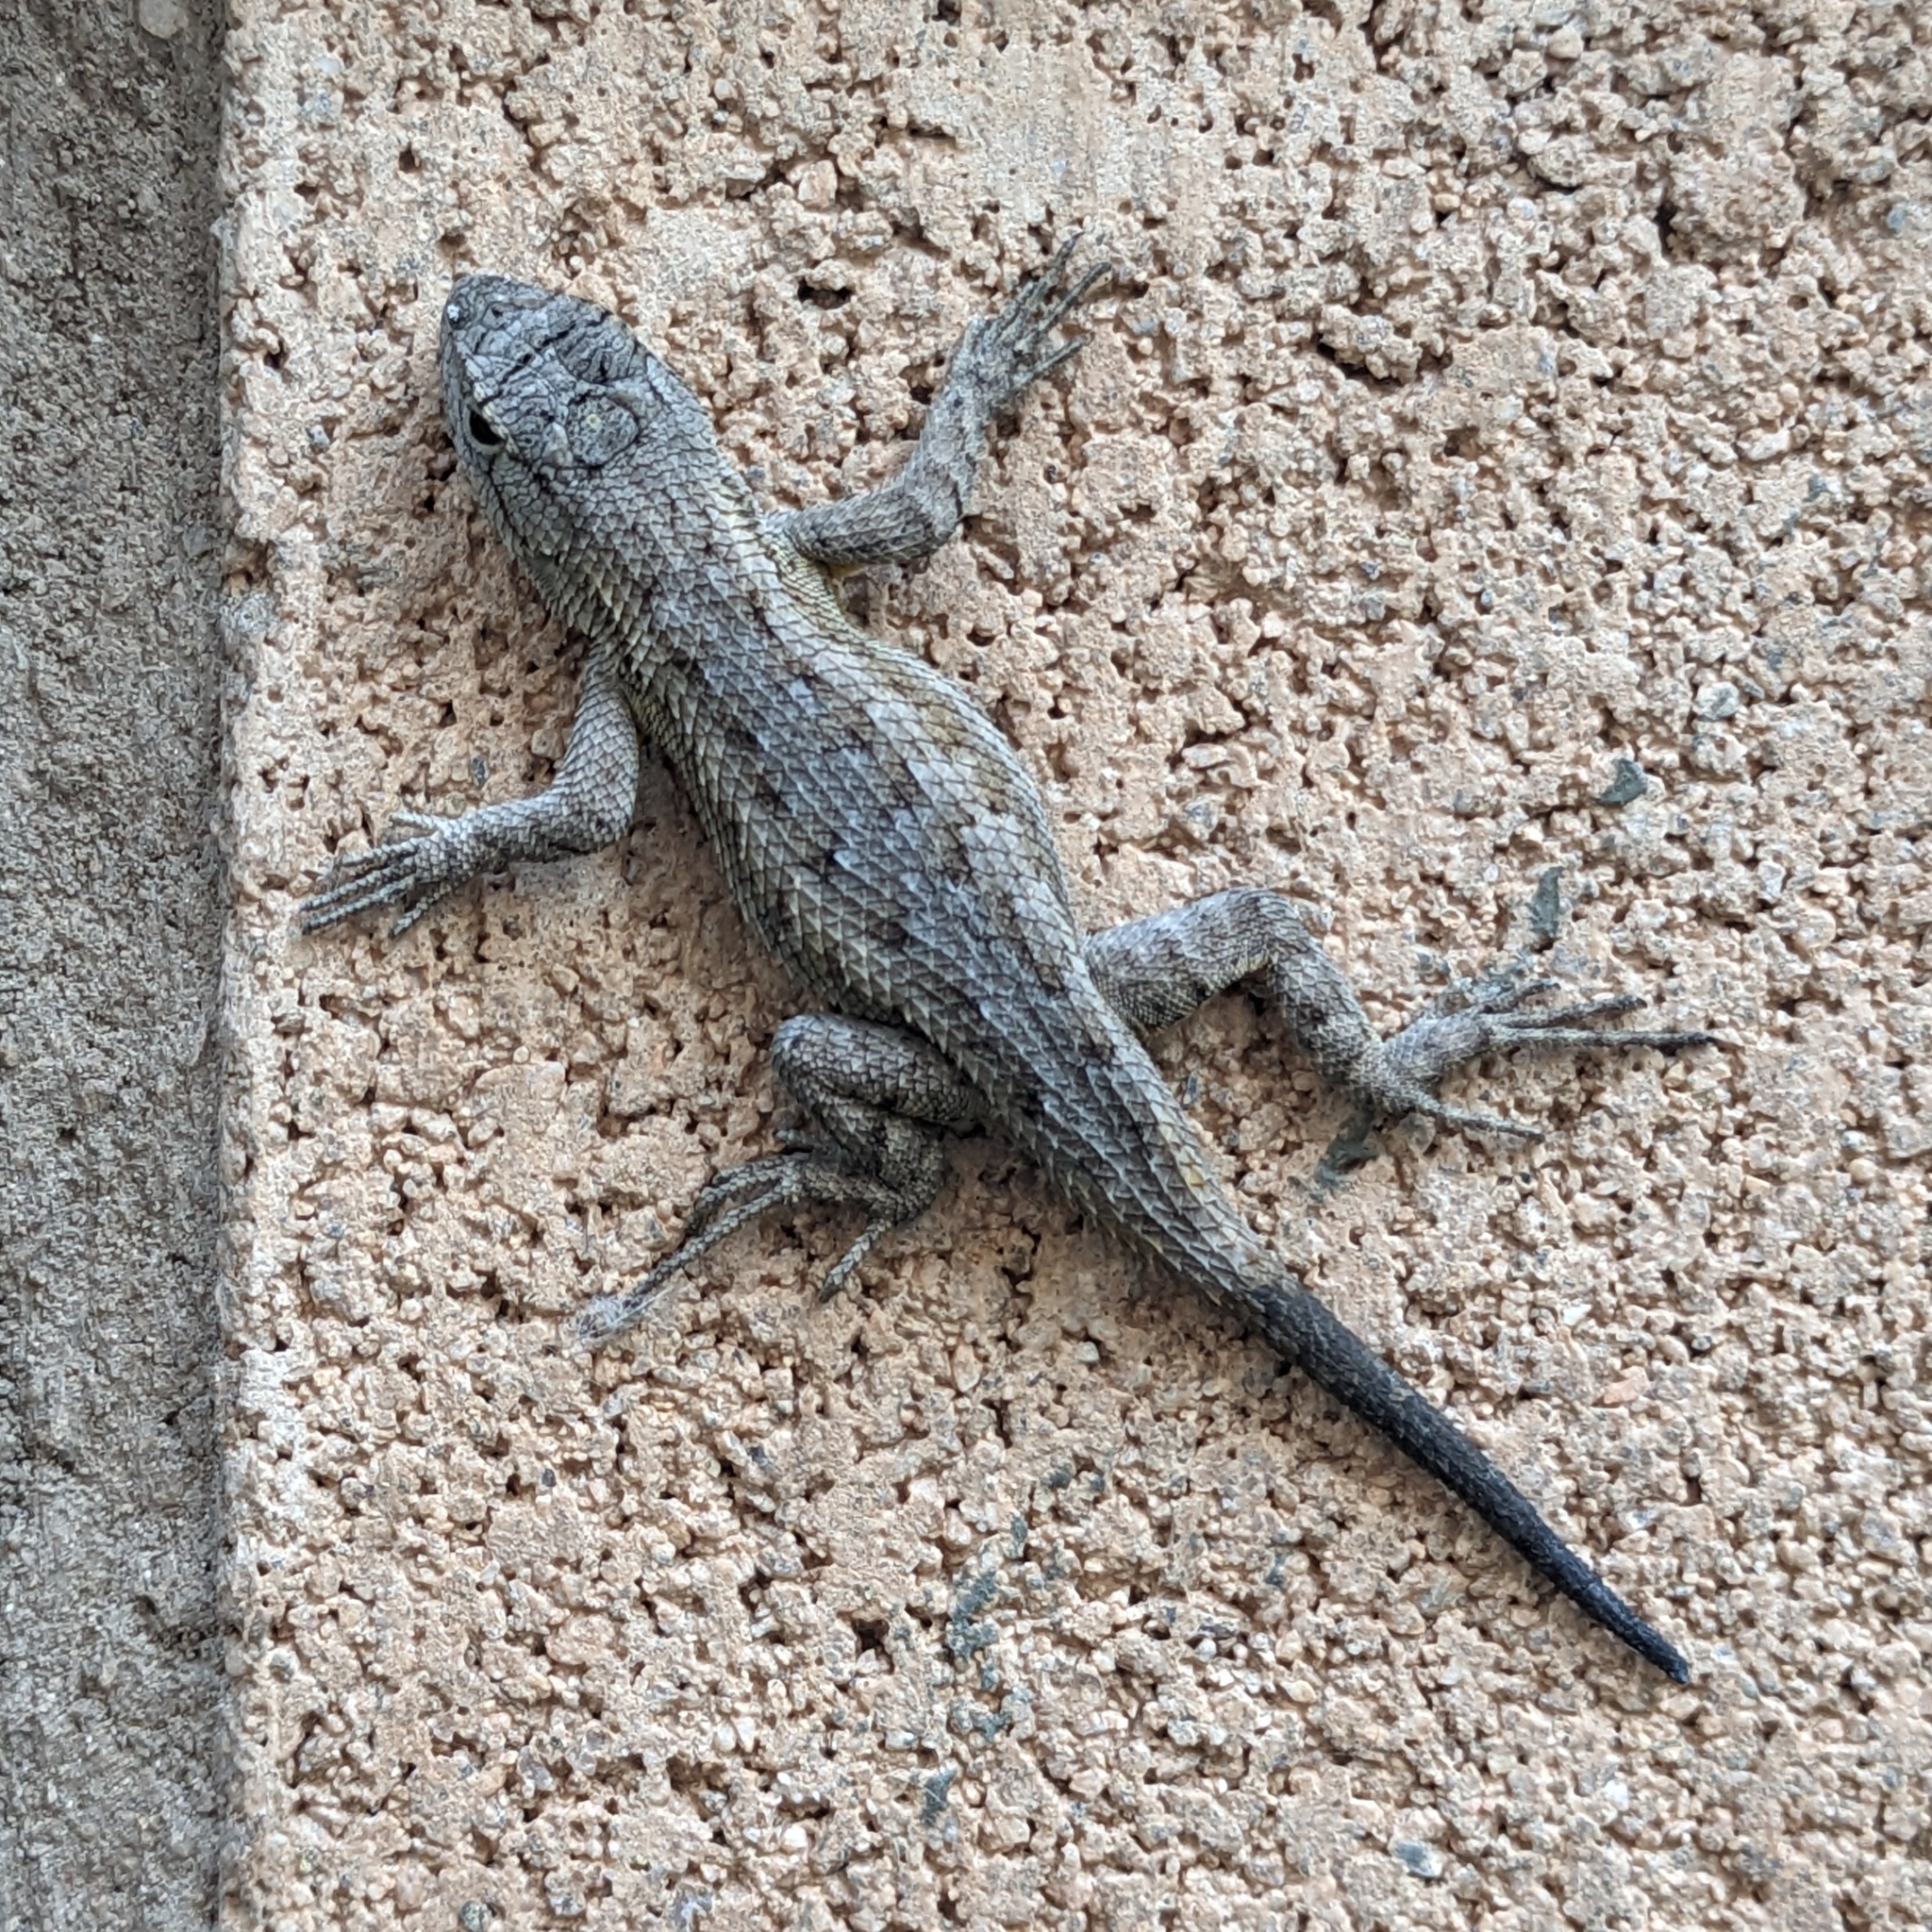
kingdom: Animalia
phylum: Chordata
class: Squamata
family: Phrynosomatidae
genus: Sceloporus
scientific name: Sceloporus occidentalis
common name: Western fence lizard
